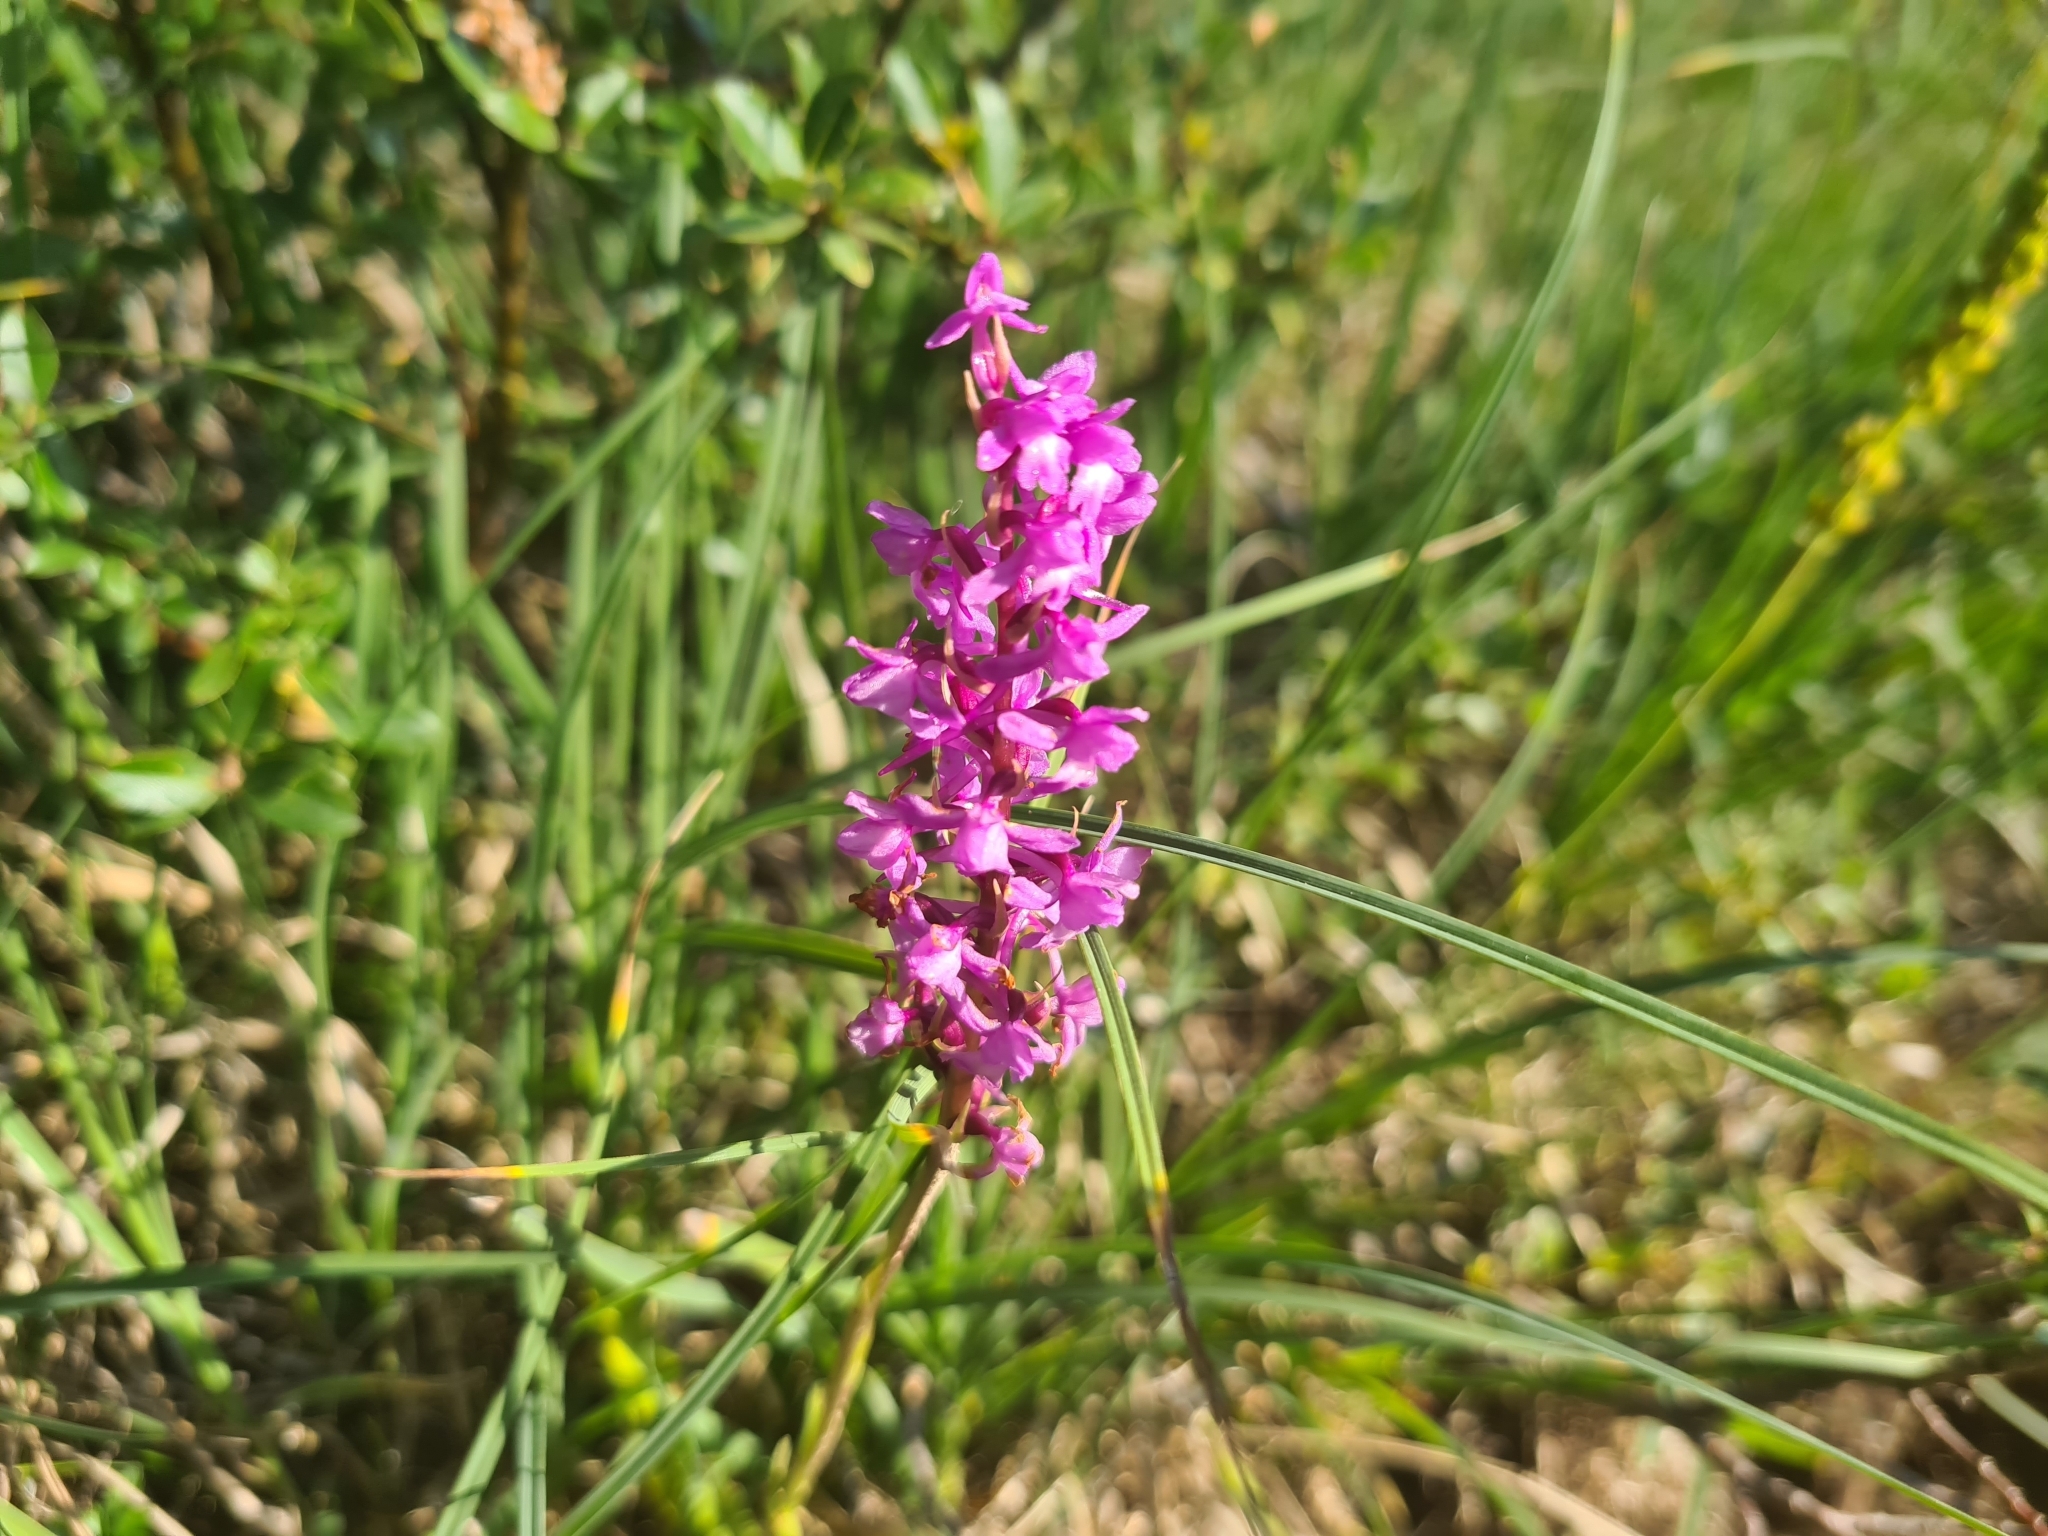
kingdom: Plantae
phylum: Tracheophyta
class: Liliopsida
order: Asparagales
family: Orchidaceae
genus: Gymnadenia
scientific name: Gymnadenia conopsea
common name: Fragrant orchid
